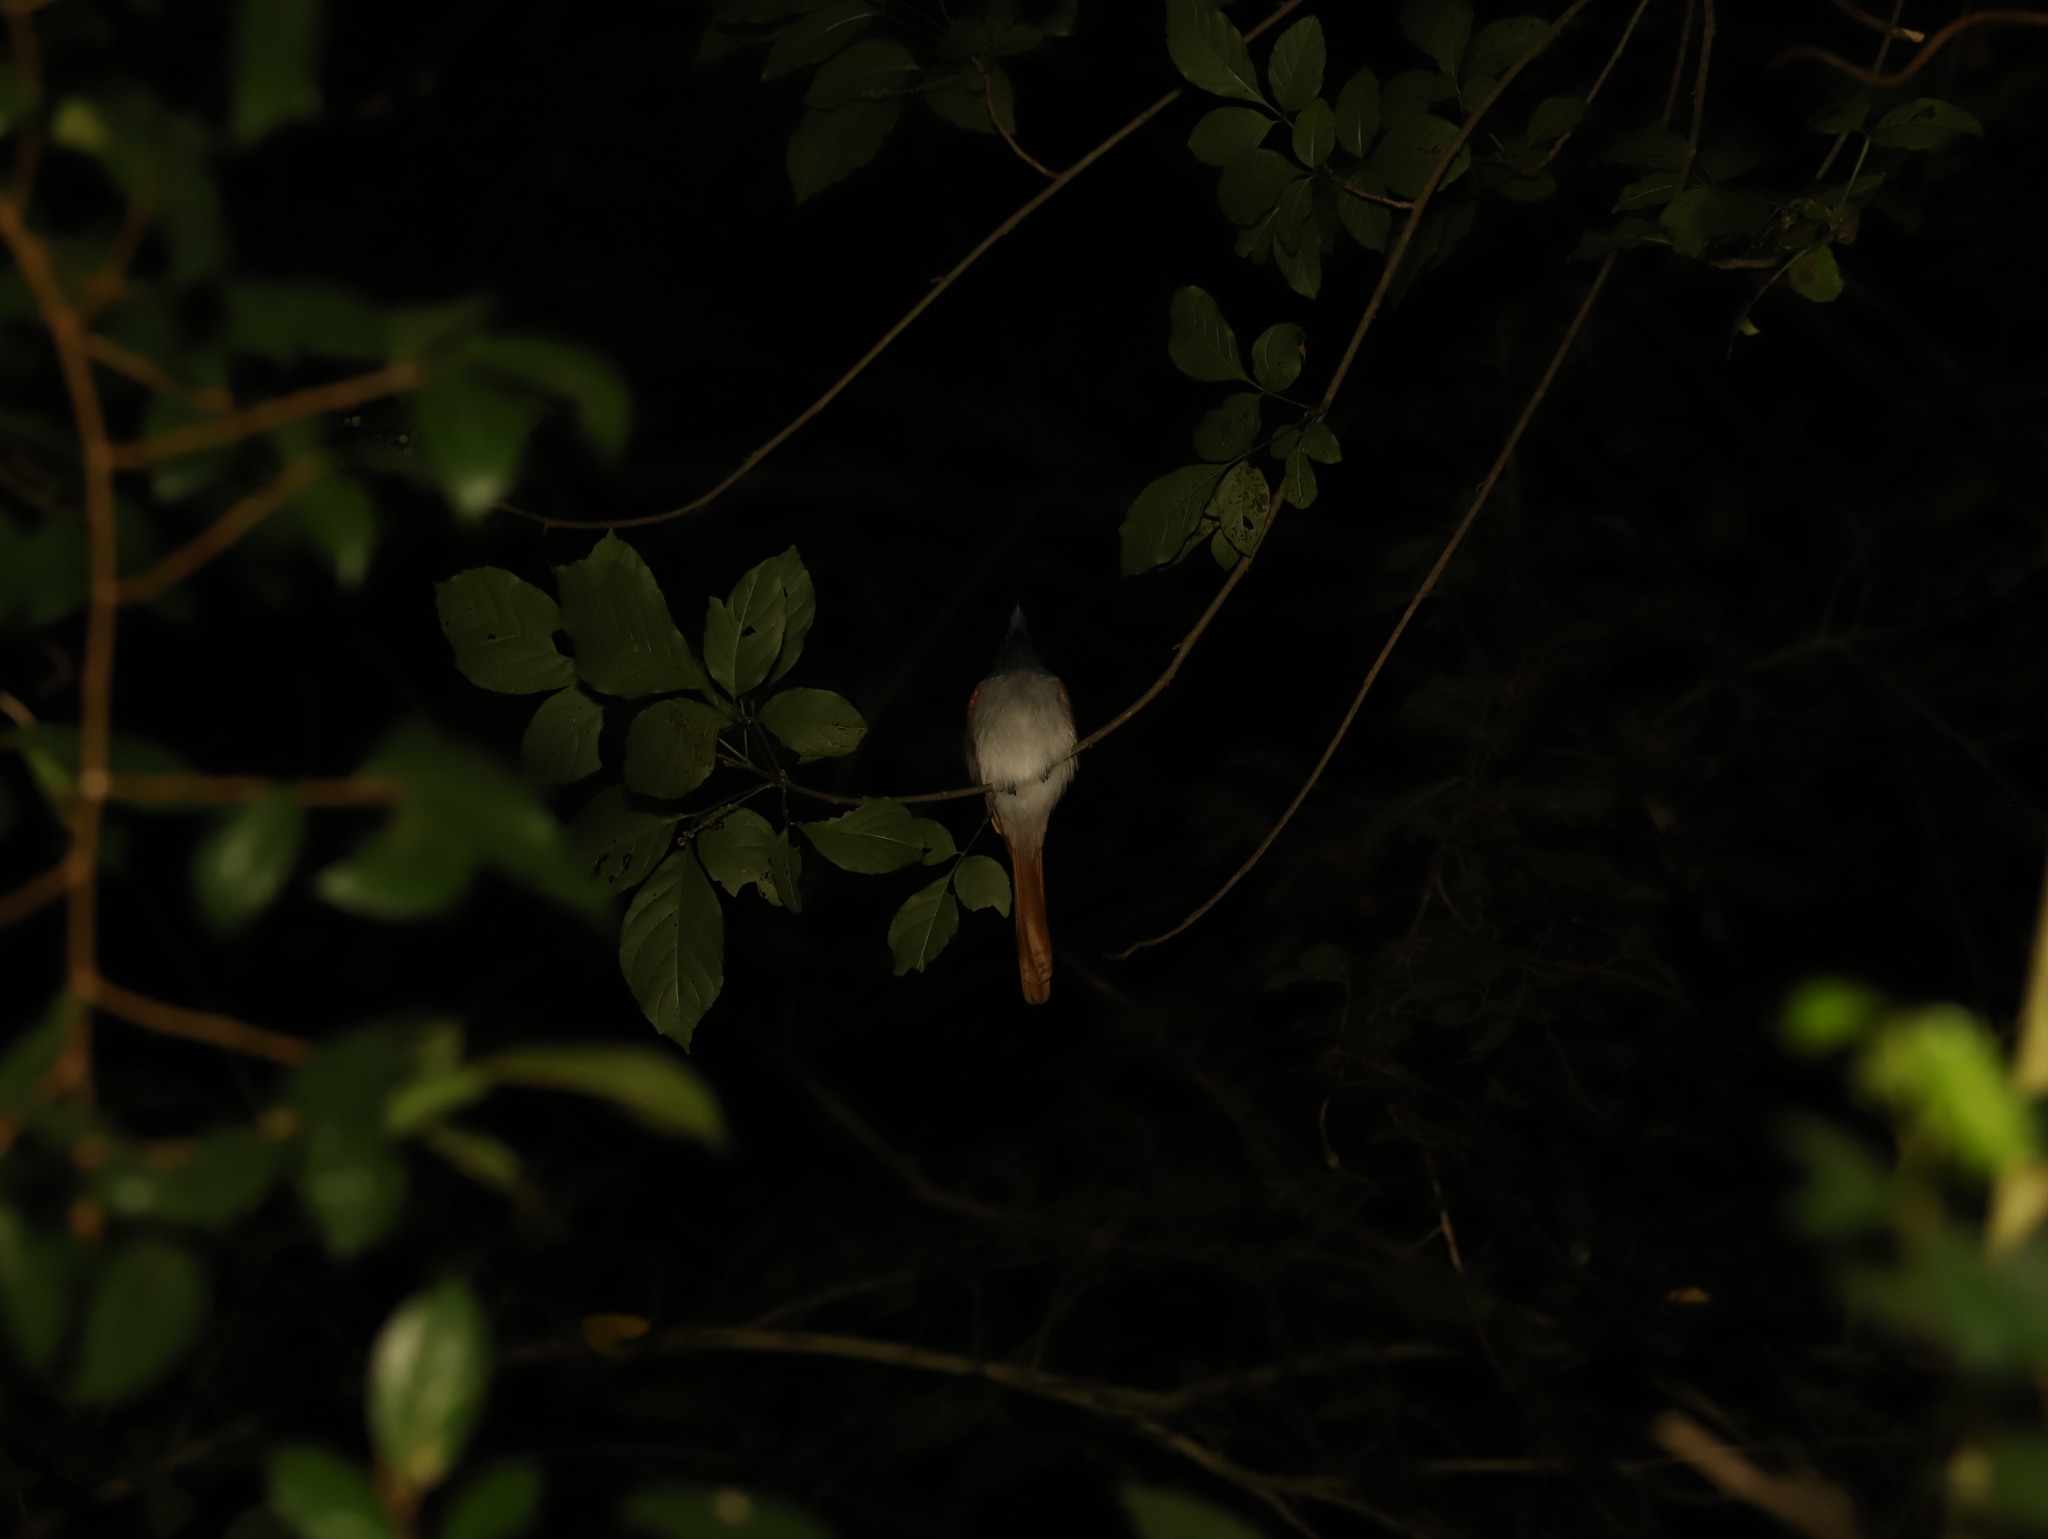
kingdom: Animalia
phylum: Chordata
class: Aves
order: Passeriformes
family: Monarchidae
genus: Terpsiphone
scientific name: Terpsiphone paradisi
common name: Indian paradise flycatcher
